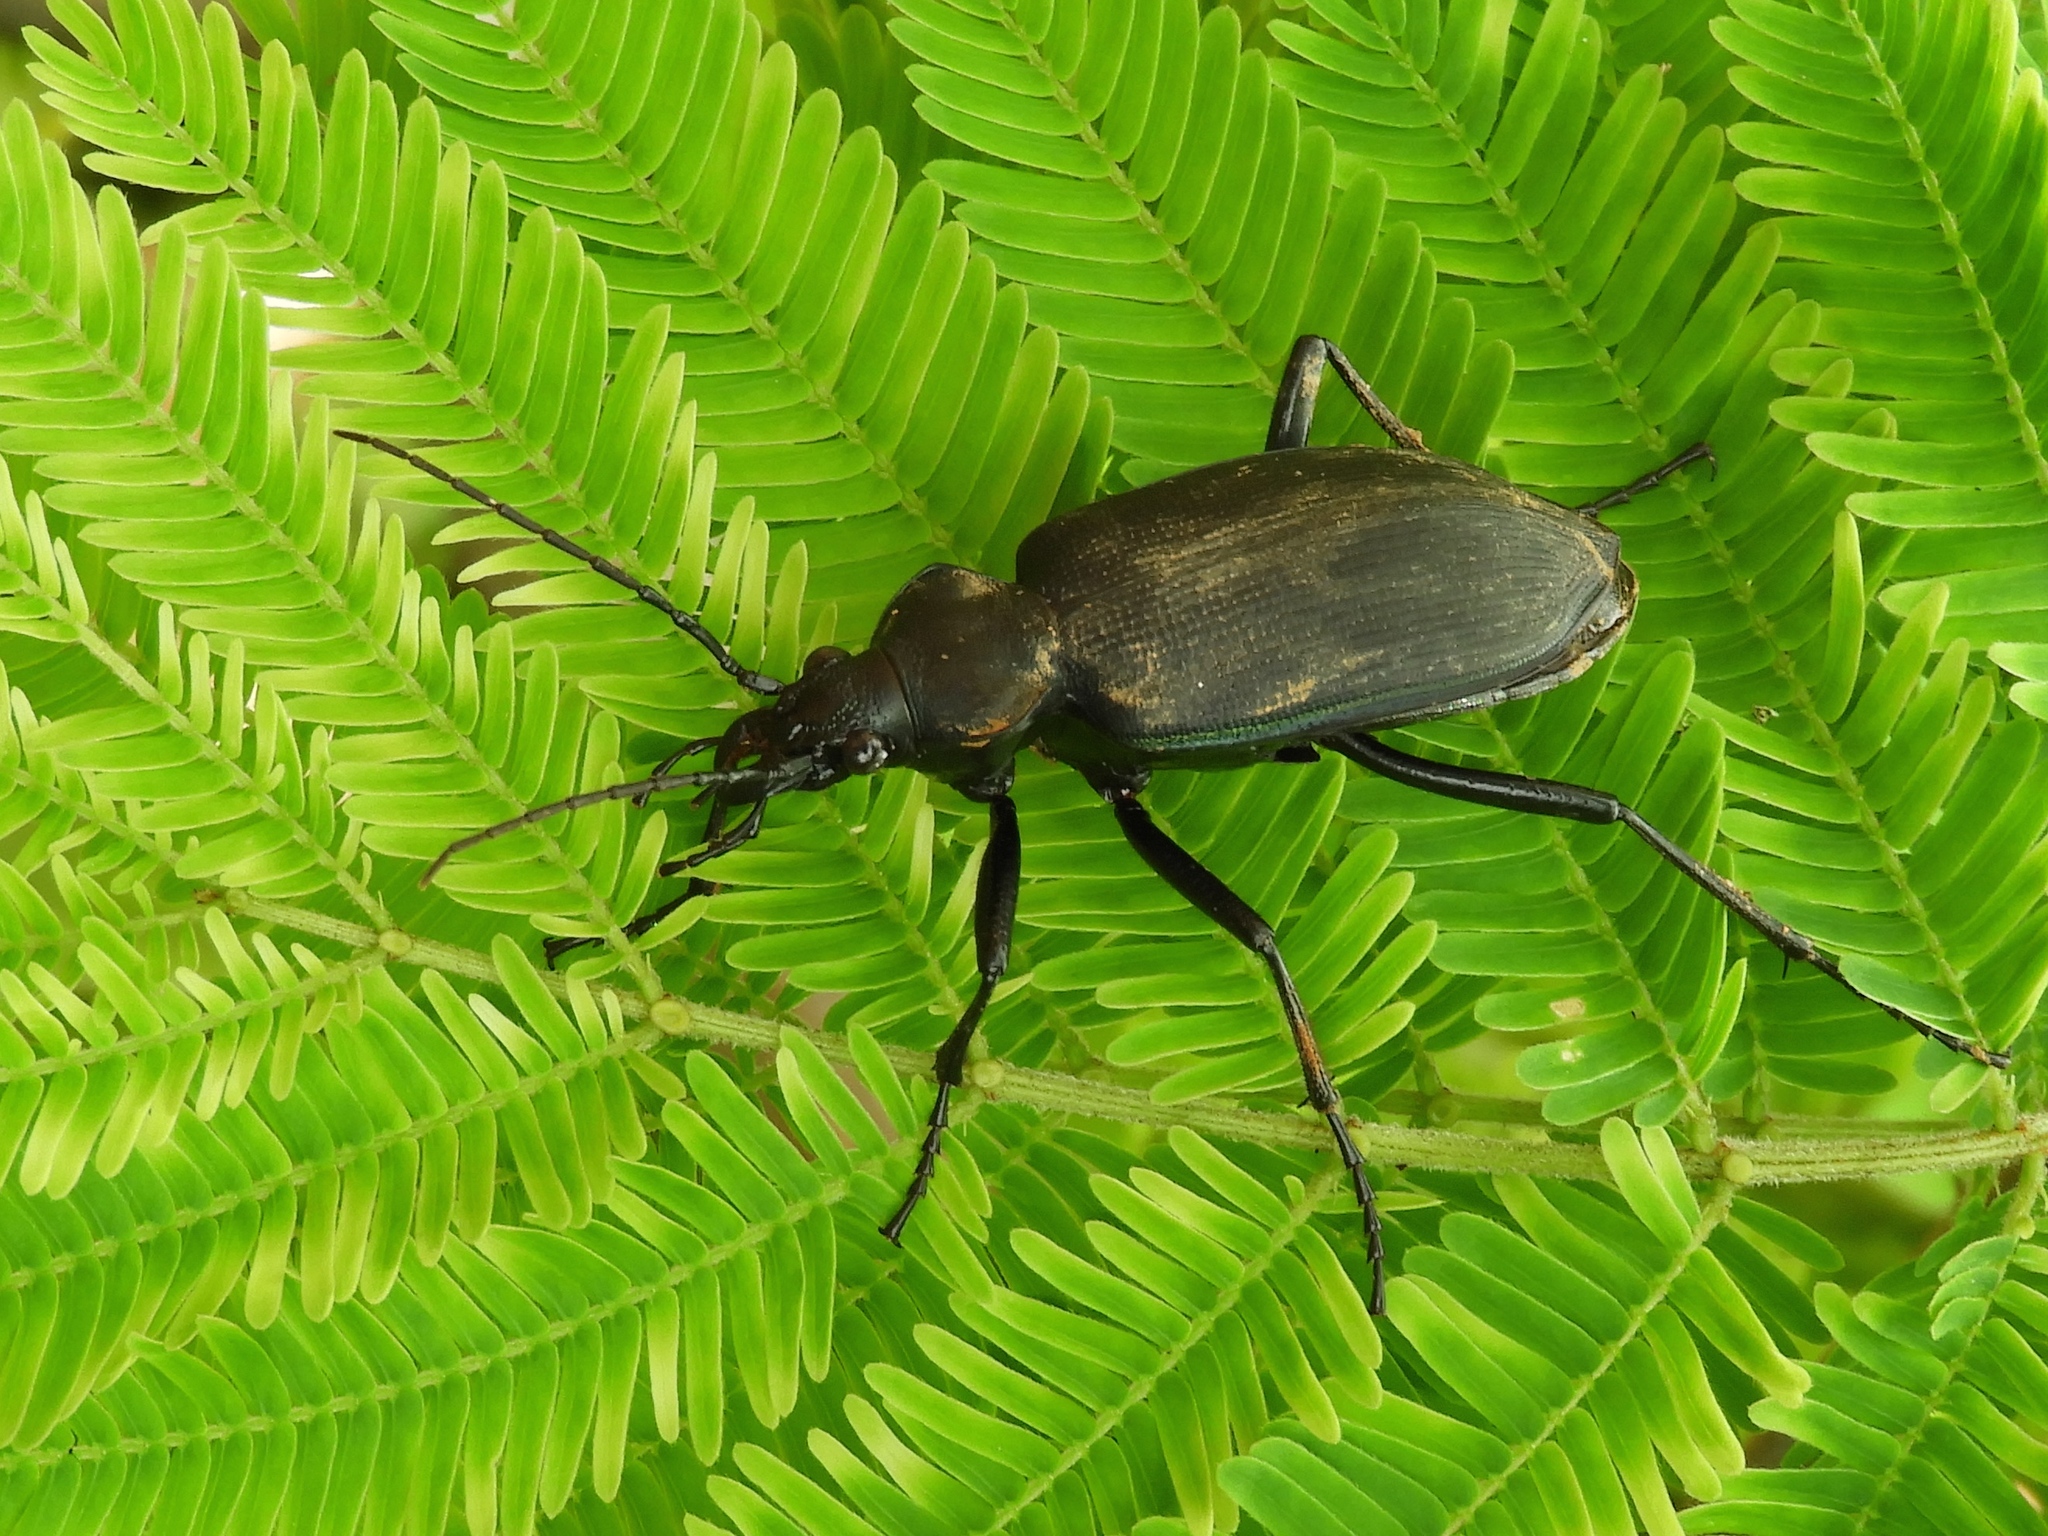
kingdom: Animalia
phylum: Arthropoda
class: Insecta
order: Coleoptera
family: Carabidae
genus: Calosoma
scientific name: Calosoma angulatum
